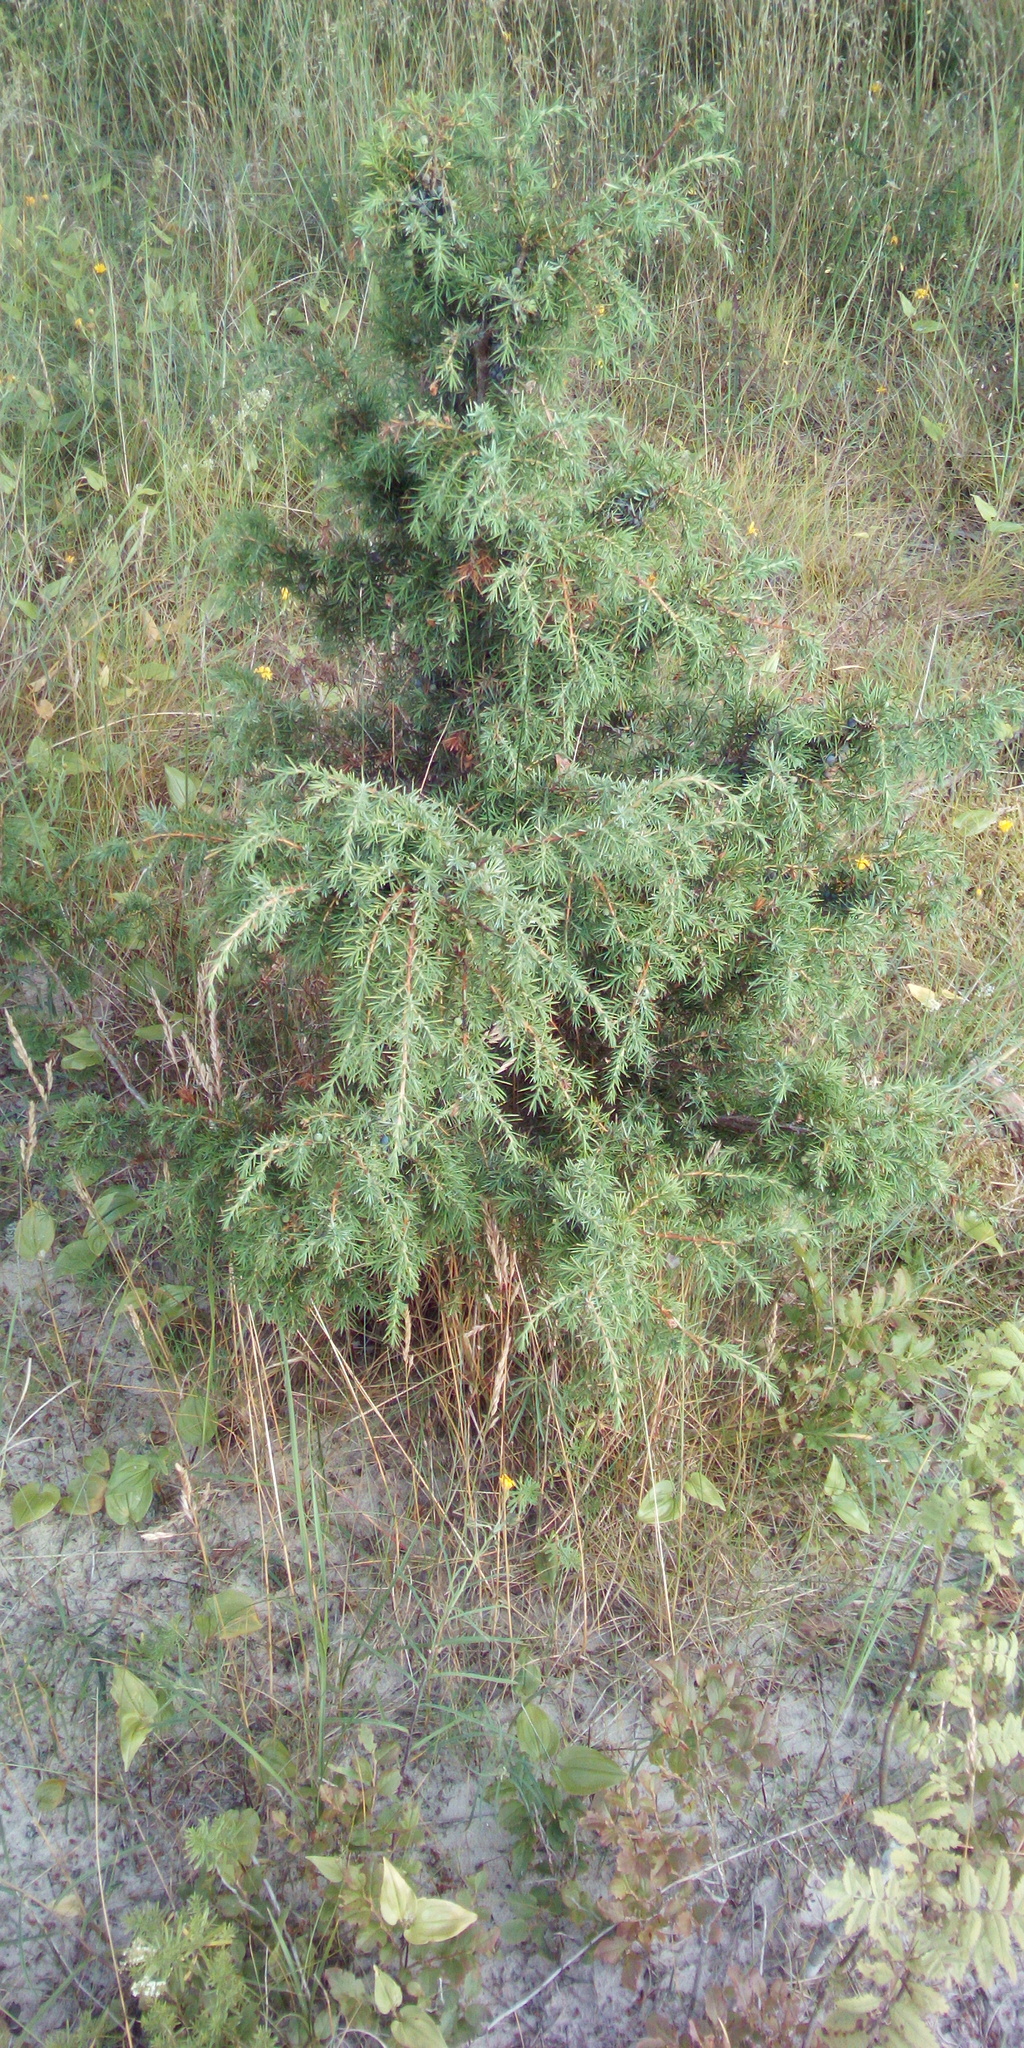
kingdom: Plantae
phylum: Tracheophyta
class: Pinopsida
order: Pinales
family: Cupressaceae
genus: Juniperus
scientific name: Juniperus communis
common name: Common juniper
